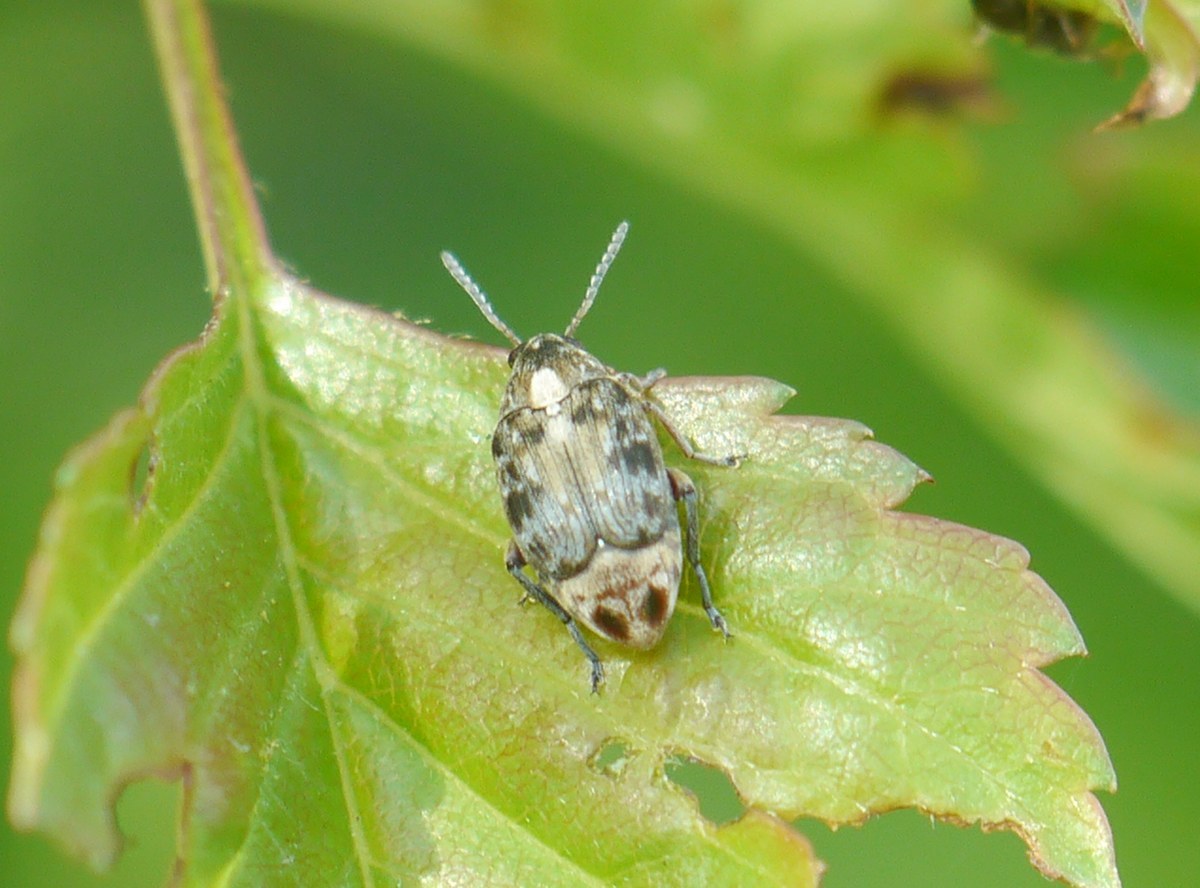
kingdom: Animalia
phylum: Arthropoda
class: Insecta
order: Coleoptera
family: Chrysomelidae
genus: Megabruchidius
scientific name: Megabruchidius dorsalis
